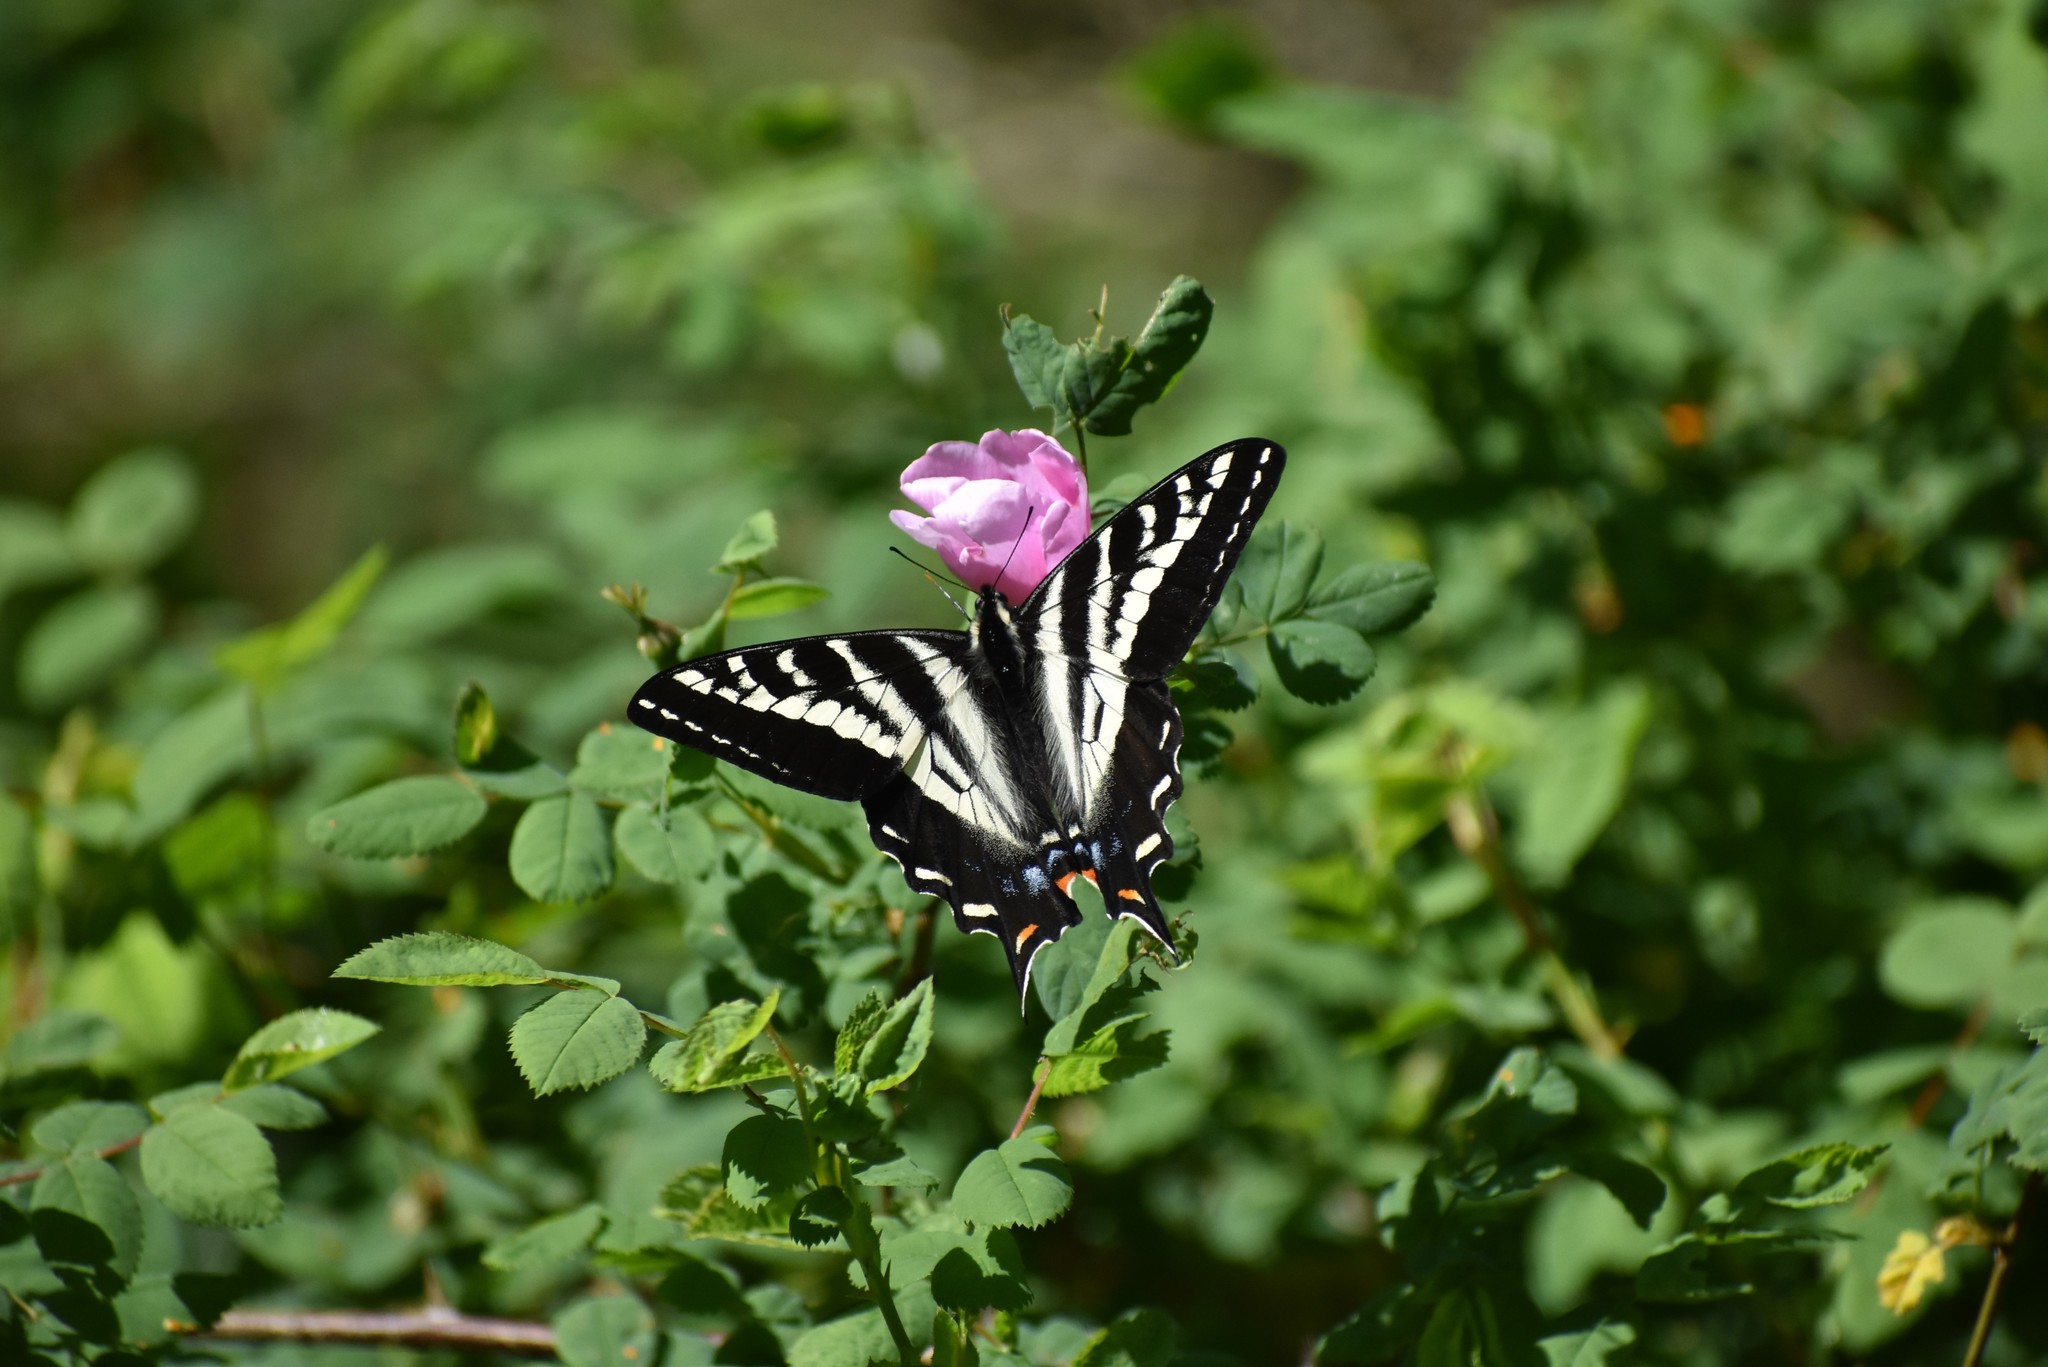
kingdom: Animalia
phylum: Arthropoda
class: Insecta
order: Lepidoptera
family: Papilionidae
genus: Papilio
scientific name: Papilio eurymedon
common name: Pale tiger swallowtail
